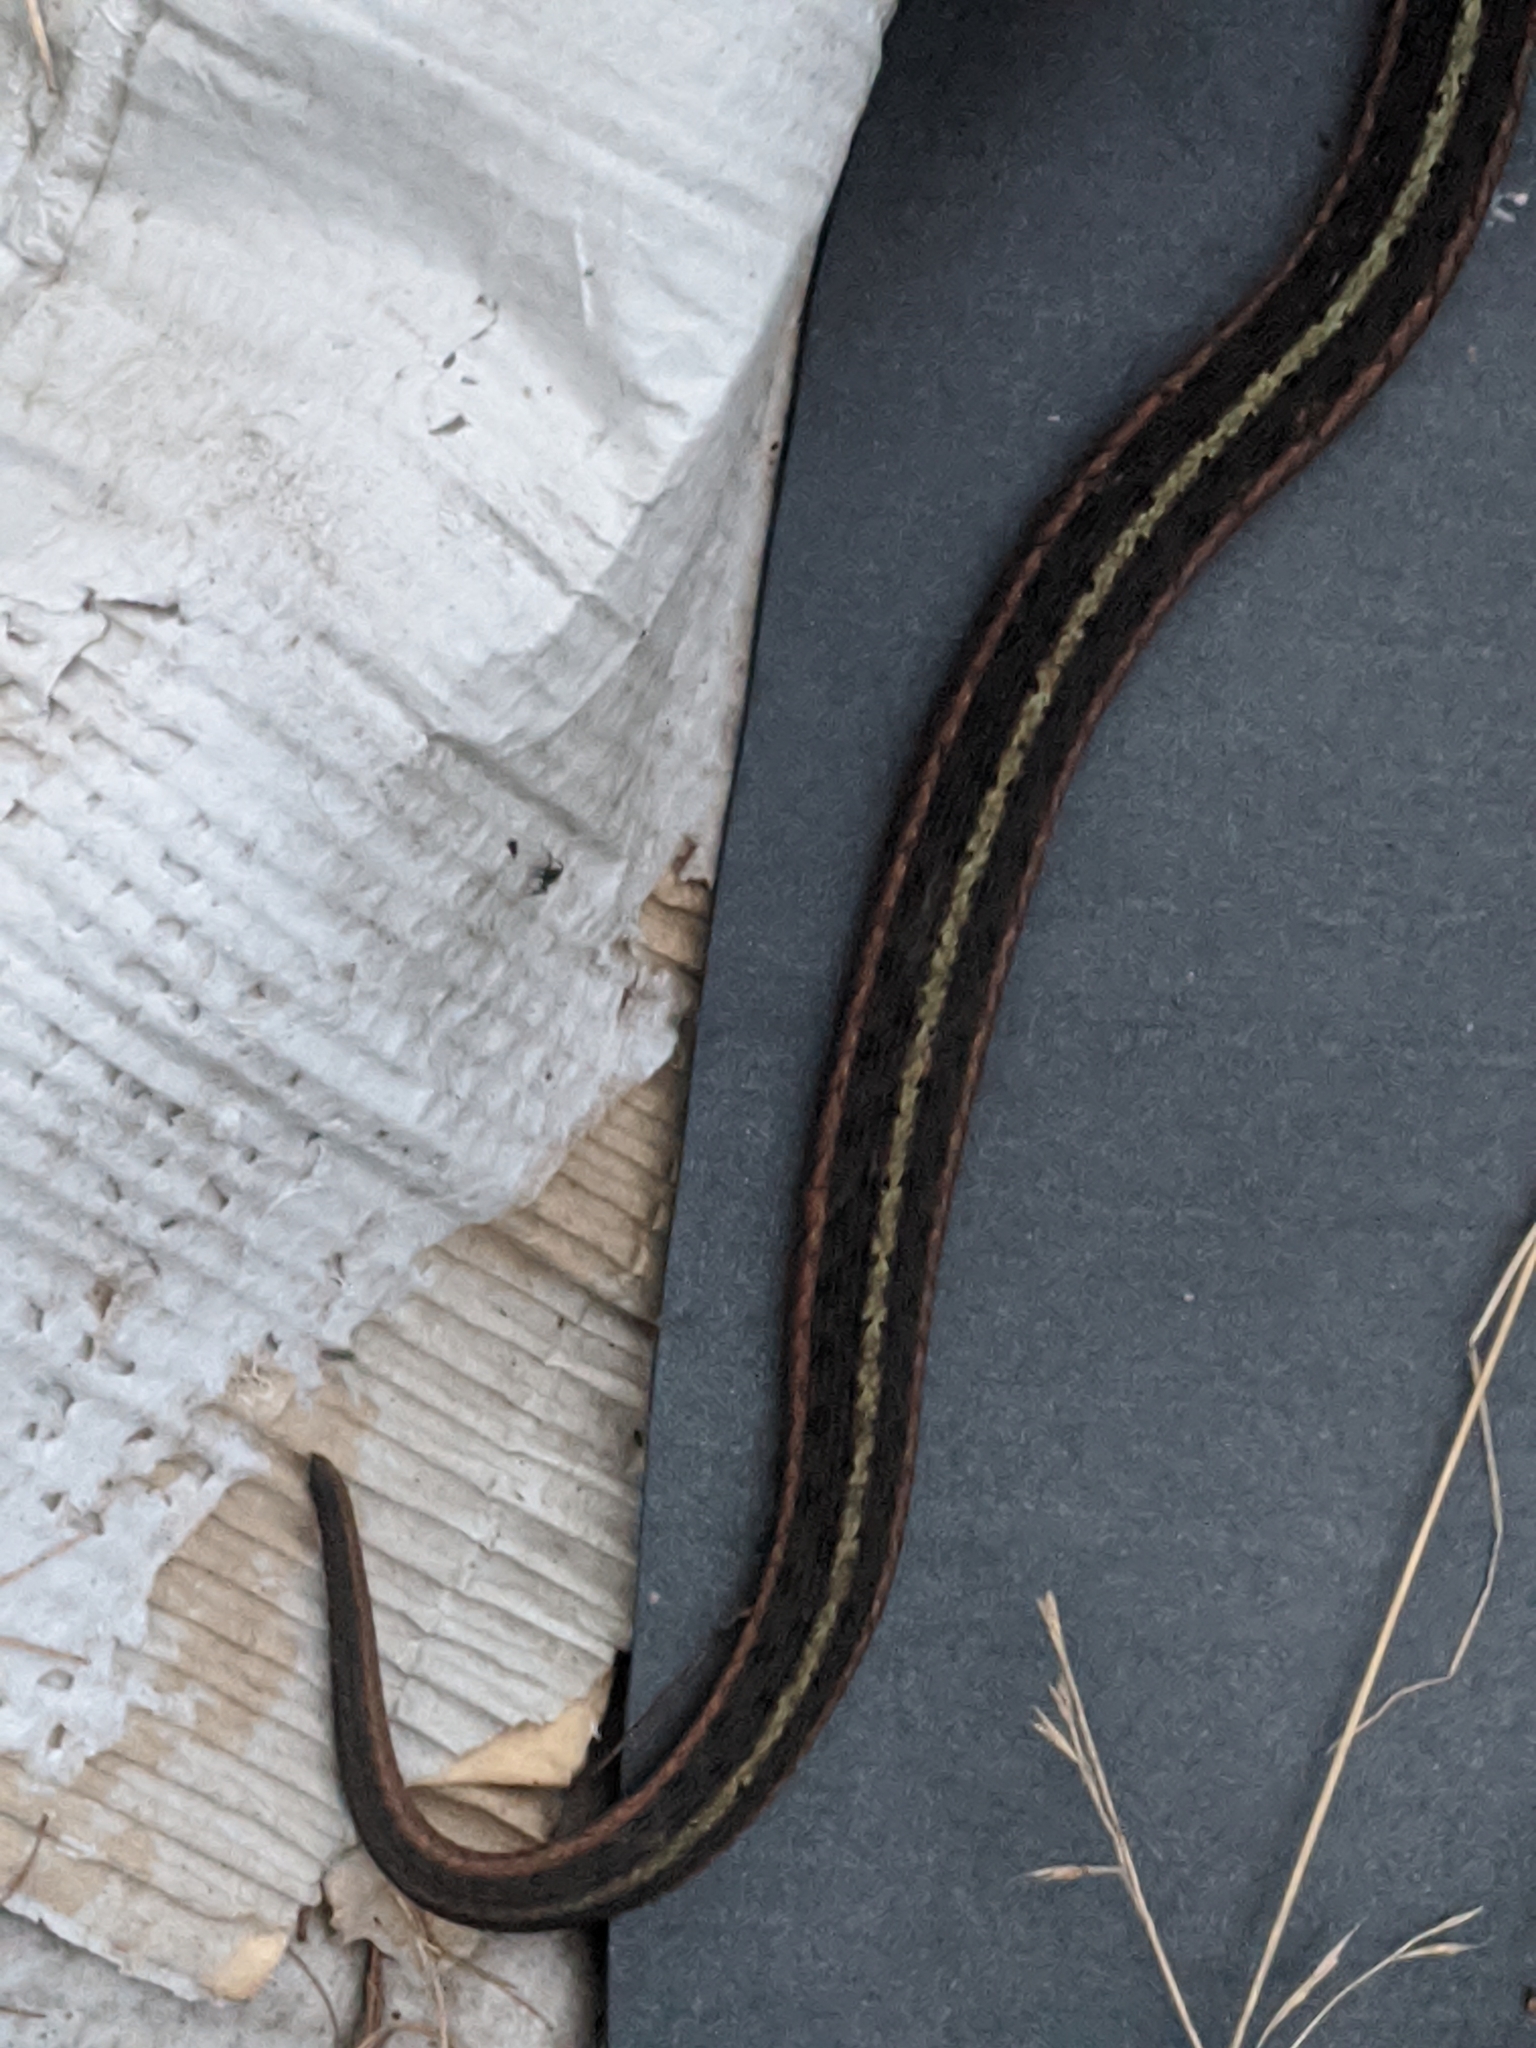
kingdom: Animalia
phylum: Chordata
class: Squamata
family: Colubridae
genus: Thamnophis
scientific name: Thamnophis sirtalis
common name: Common garter snake
